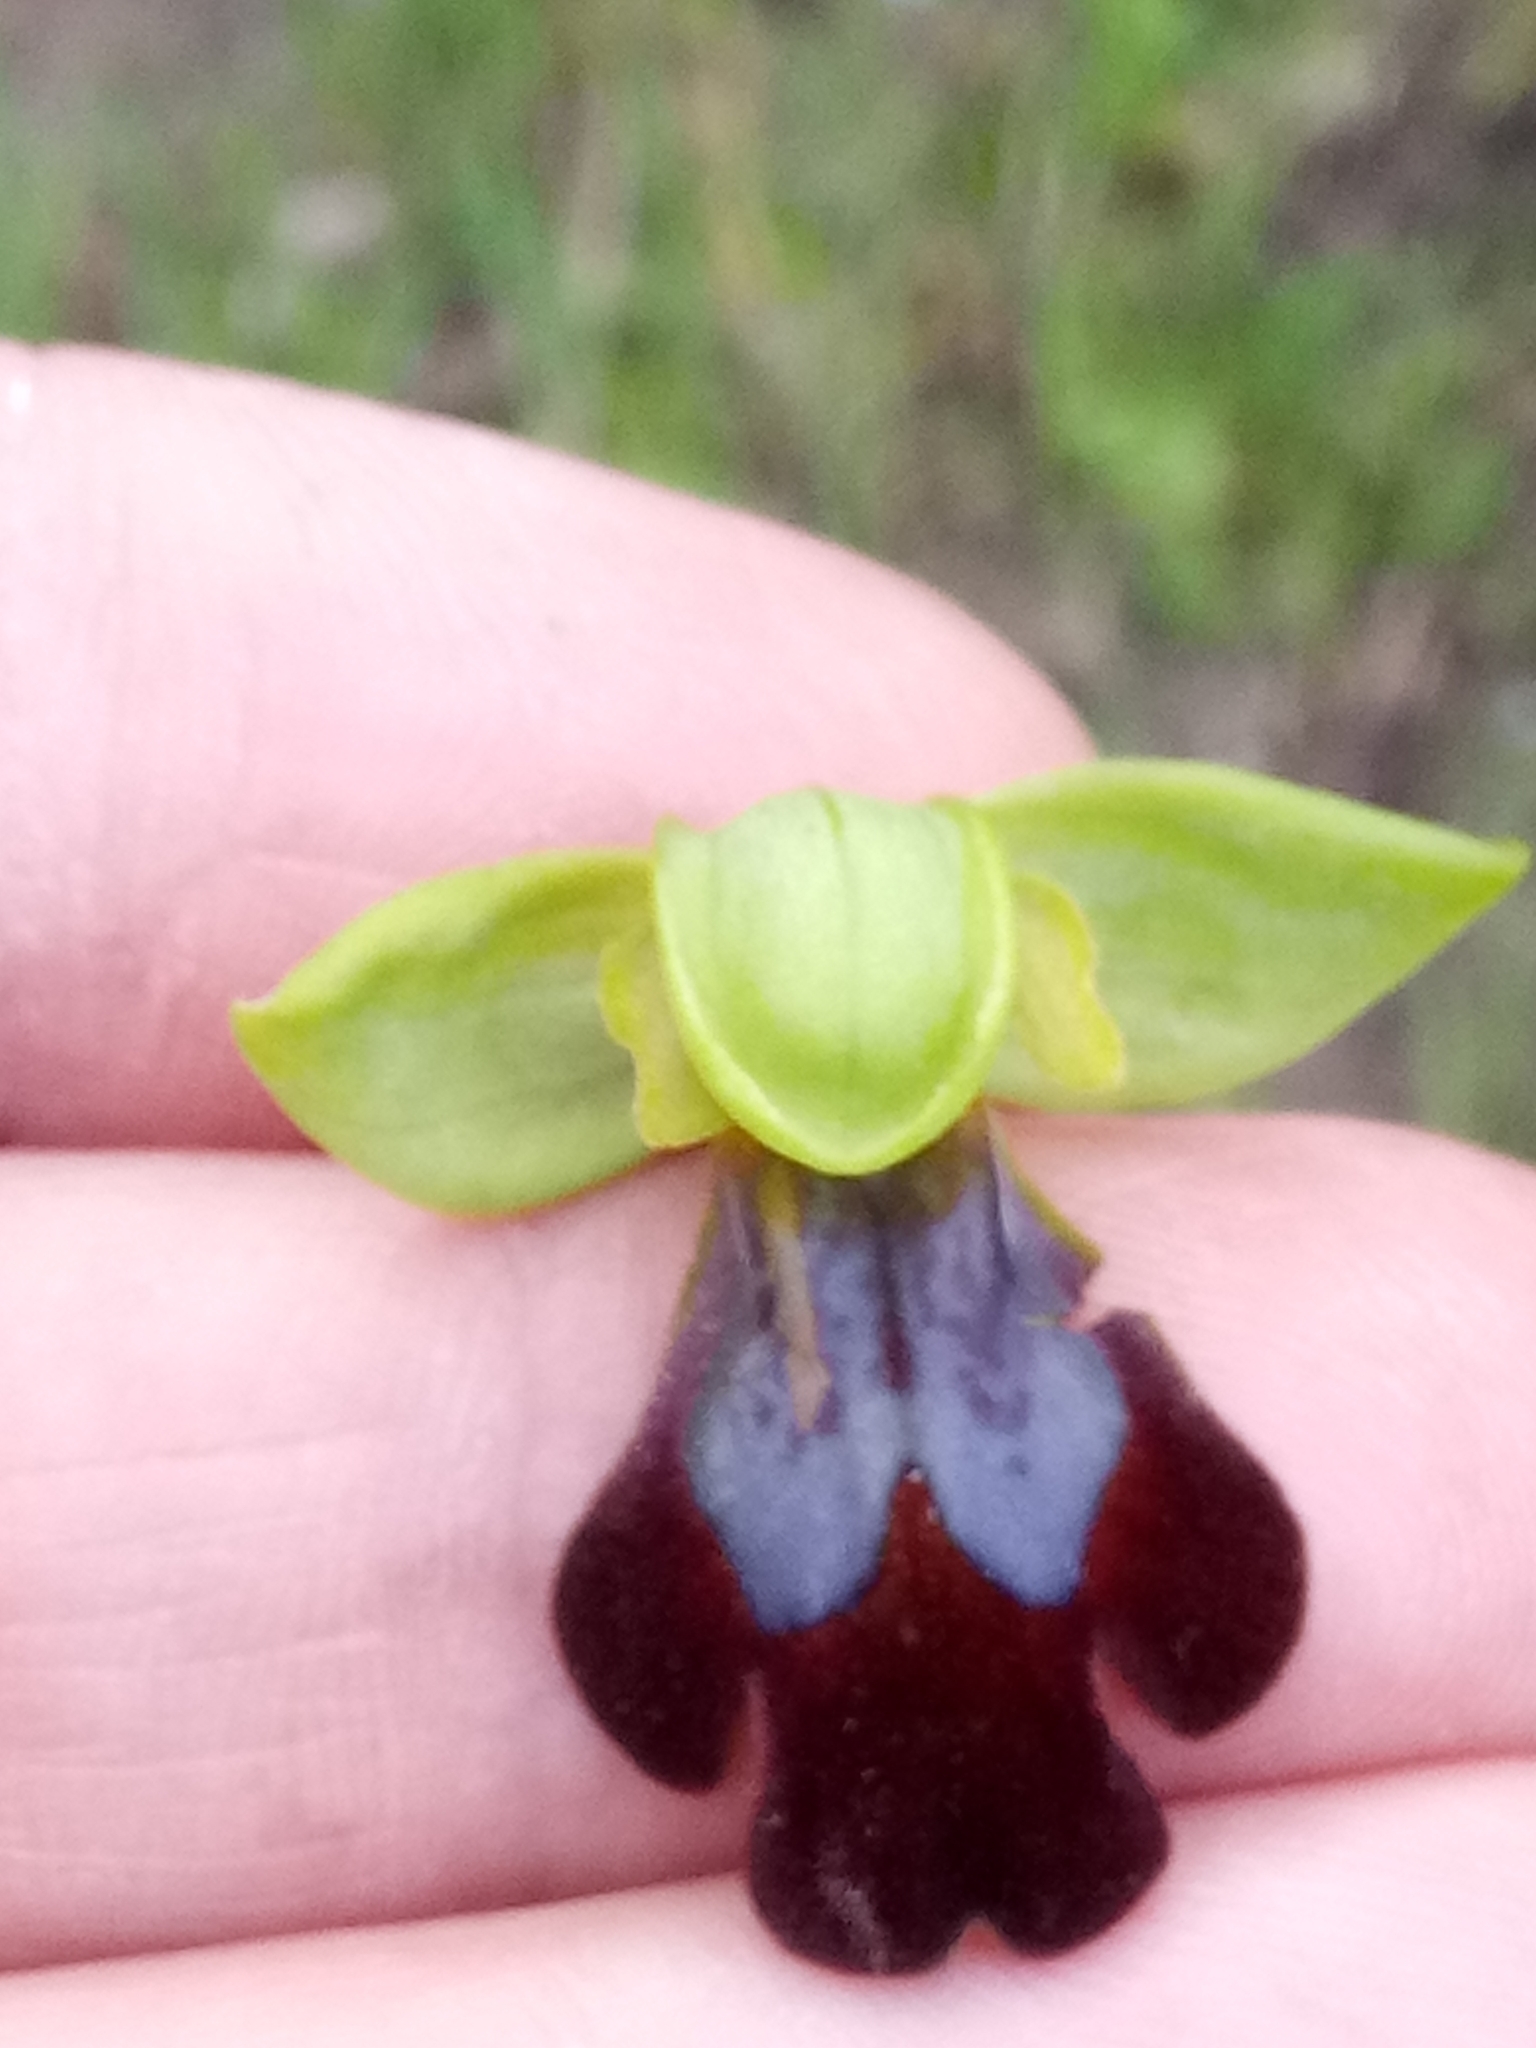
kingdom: Plantae
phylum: Tracheophyta
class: Liliopsida
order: Asparagales
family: Orchidaceae
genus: Ophrys
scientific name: Ophrys fusca
